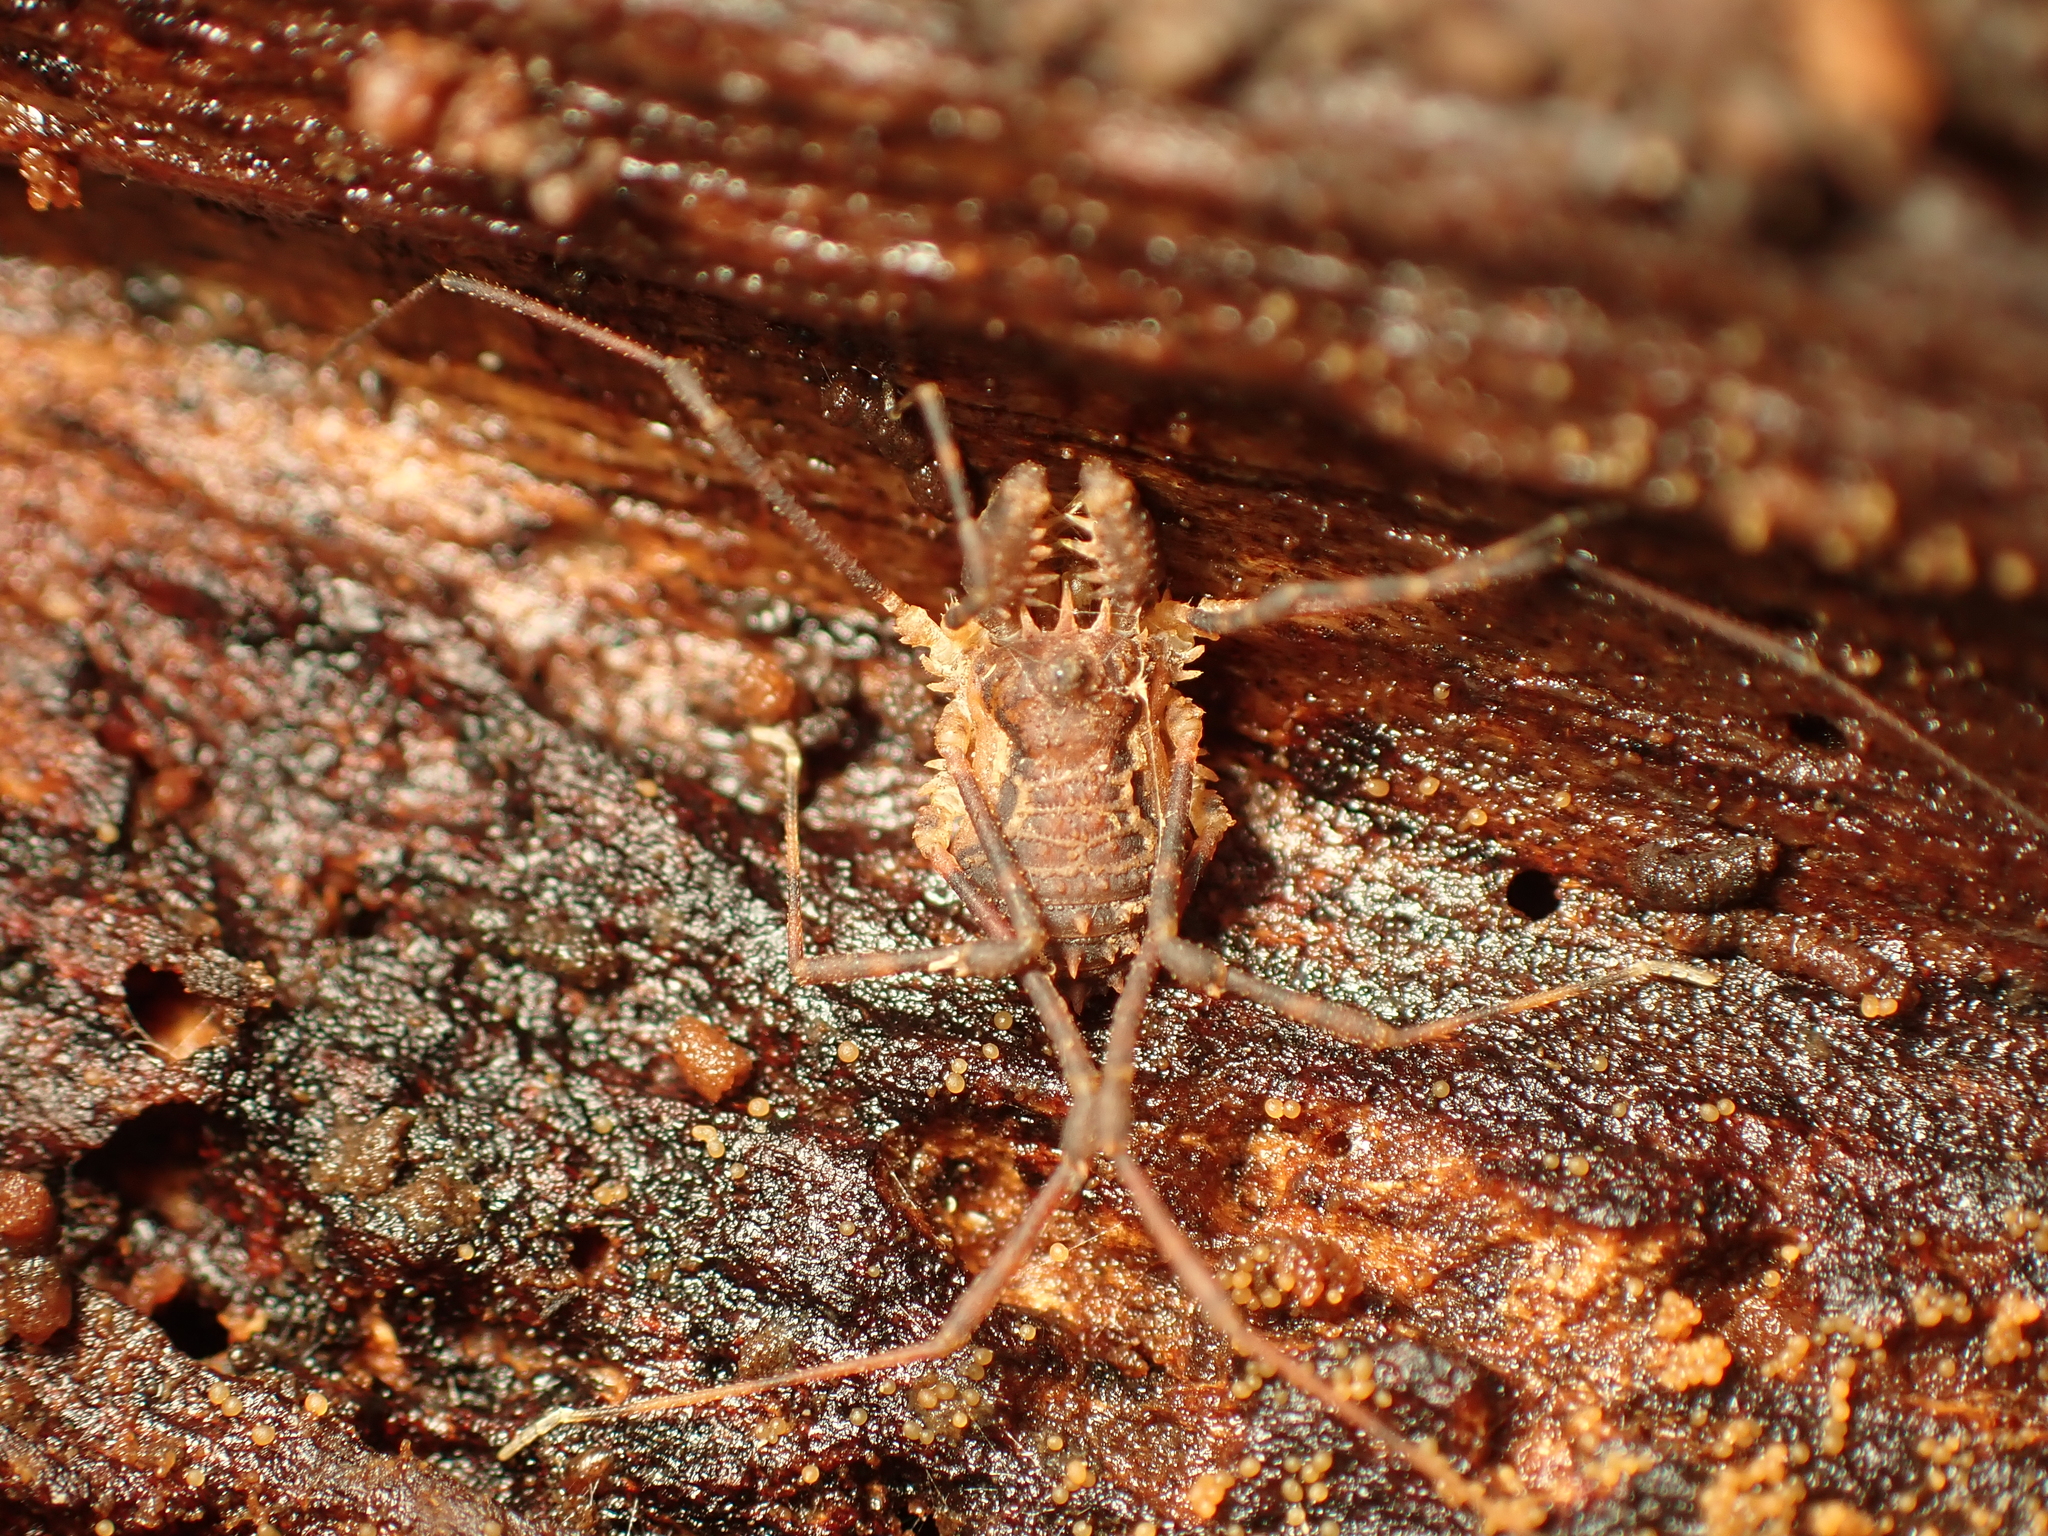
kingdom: Animalia
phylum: Arthropoda
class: Arachnida
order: Opiliones
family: Triaenonychidae
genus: Algidia
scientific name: Algidia chiltoni
